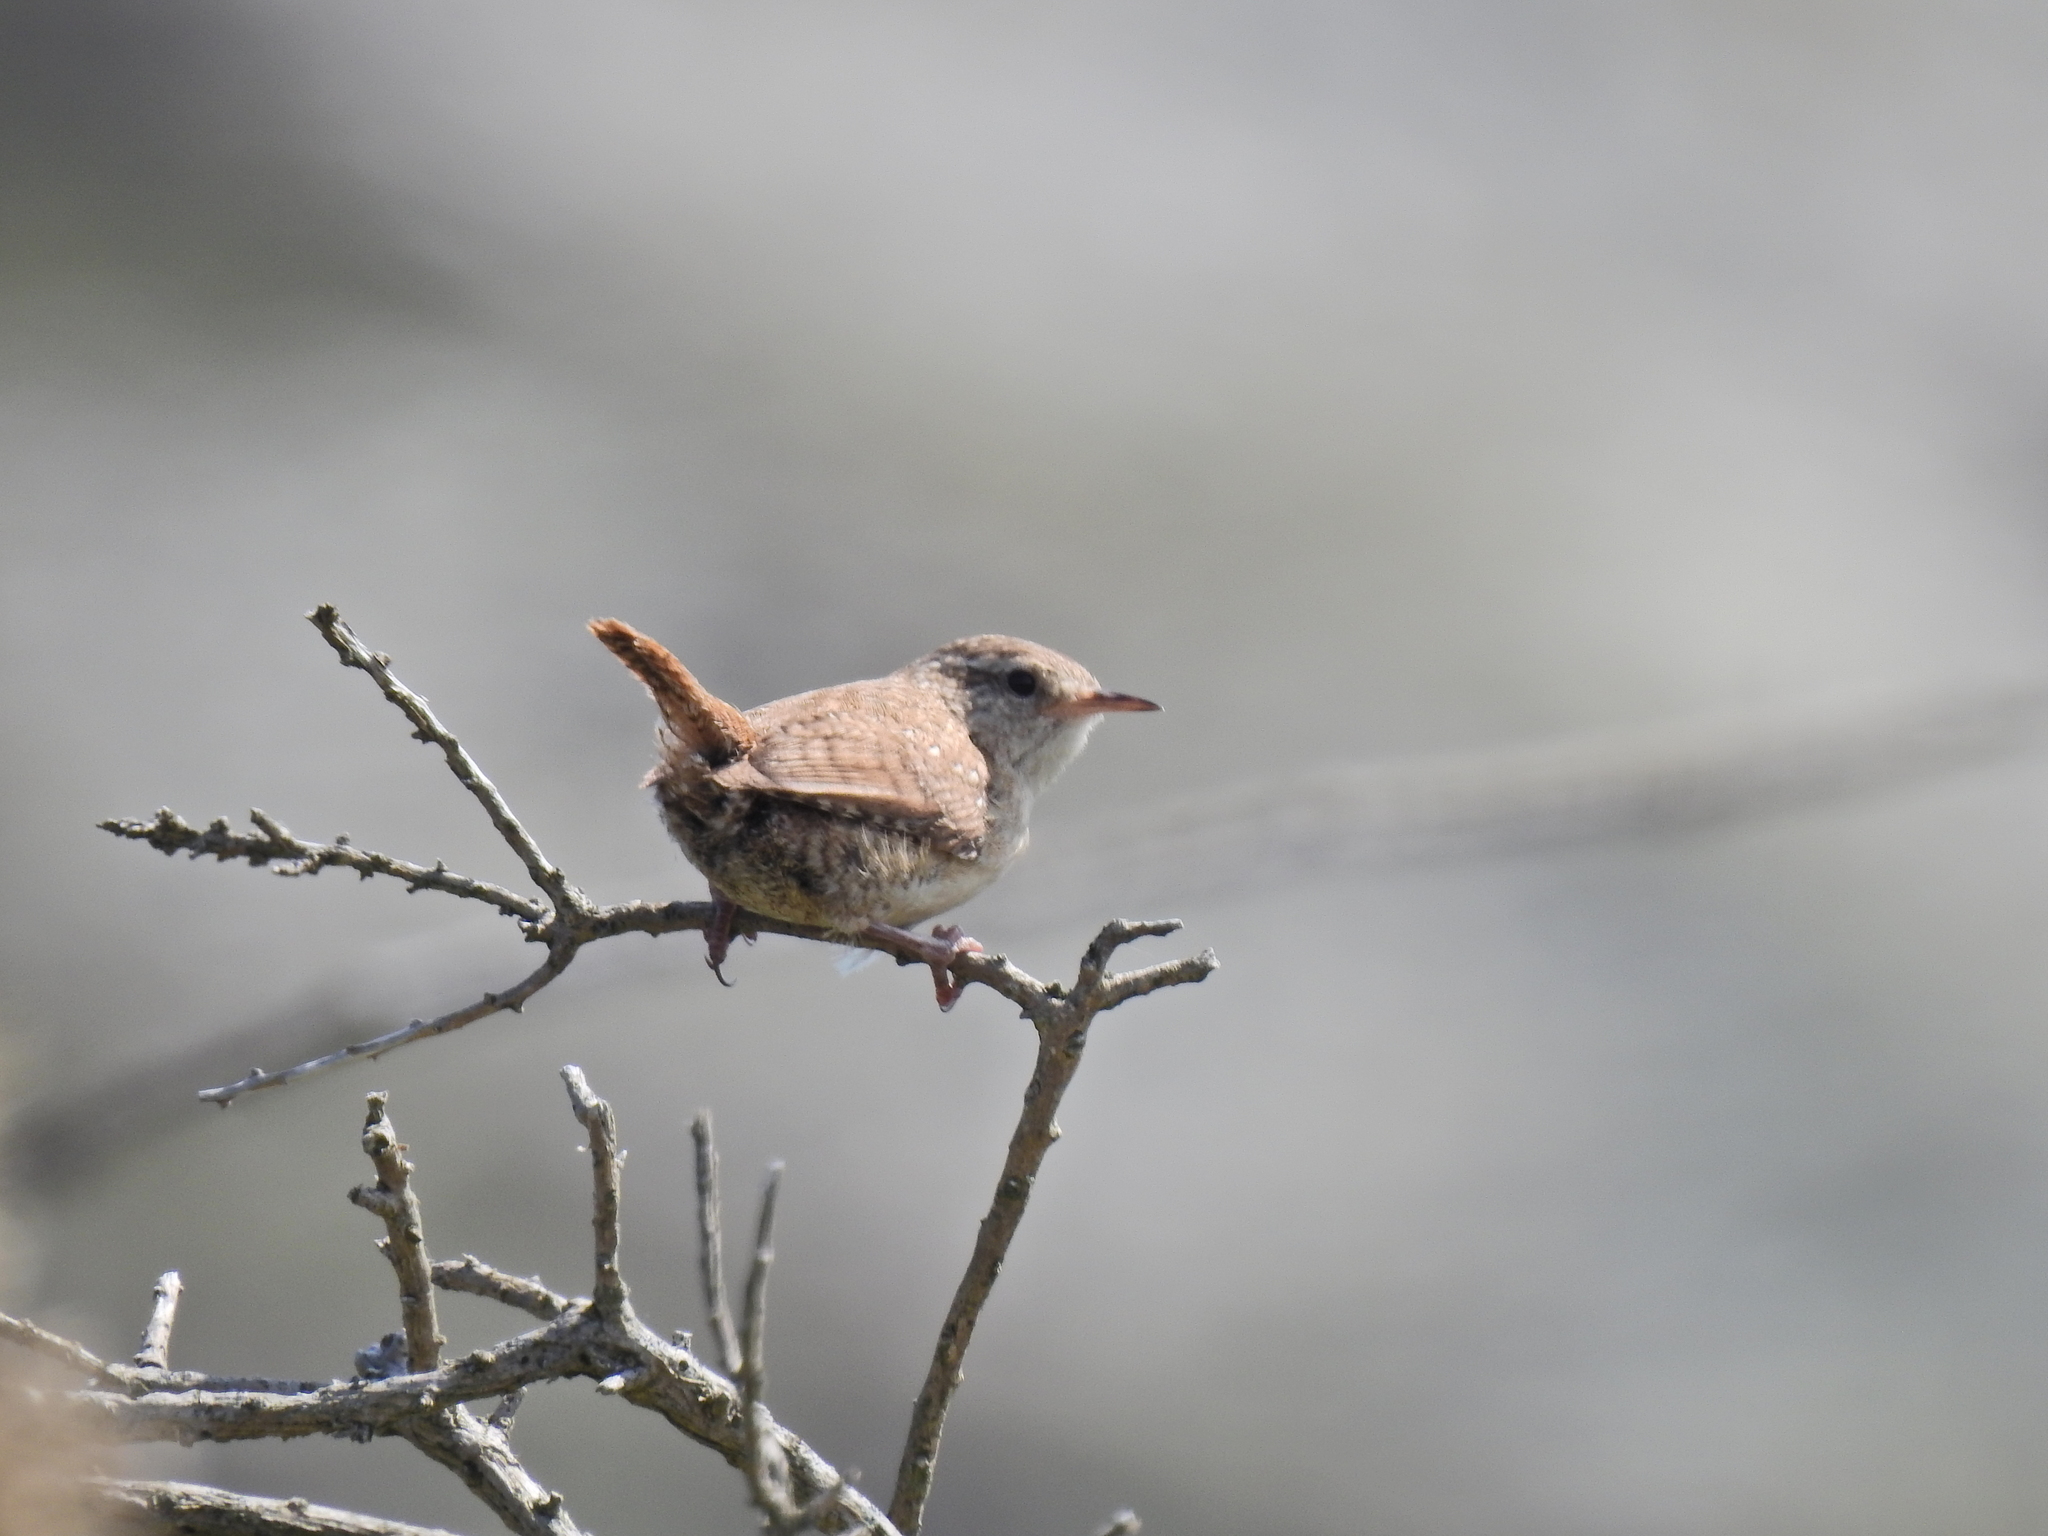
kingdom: Animalia
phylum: Chordata
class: Aves
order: Passeriformes
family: Troglodytidae
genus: Troglodytes
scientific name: Troglodytes troglodytes
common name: Eurasian wren
